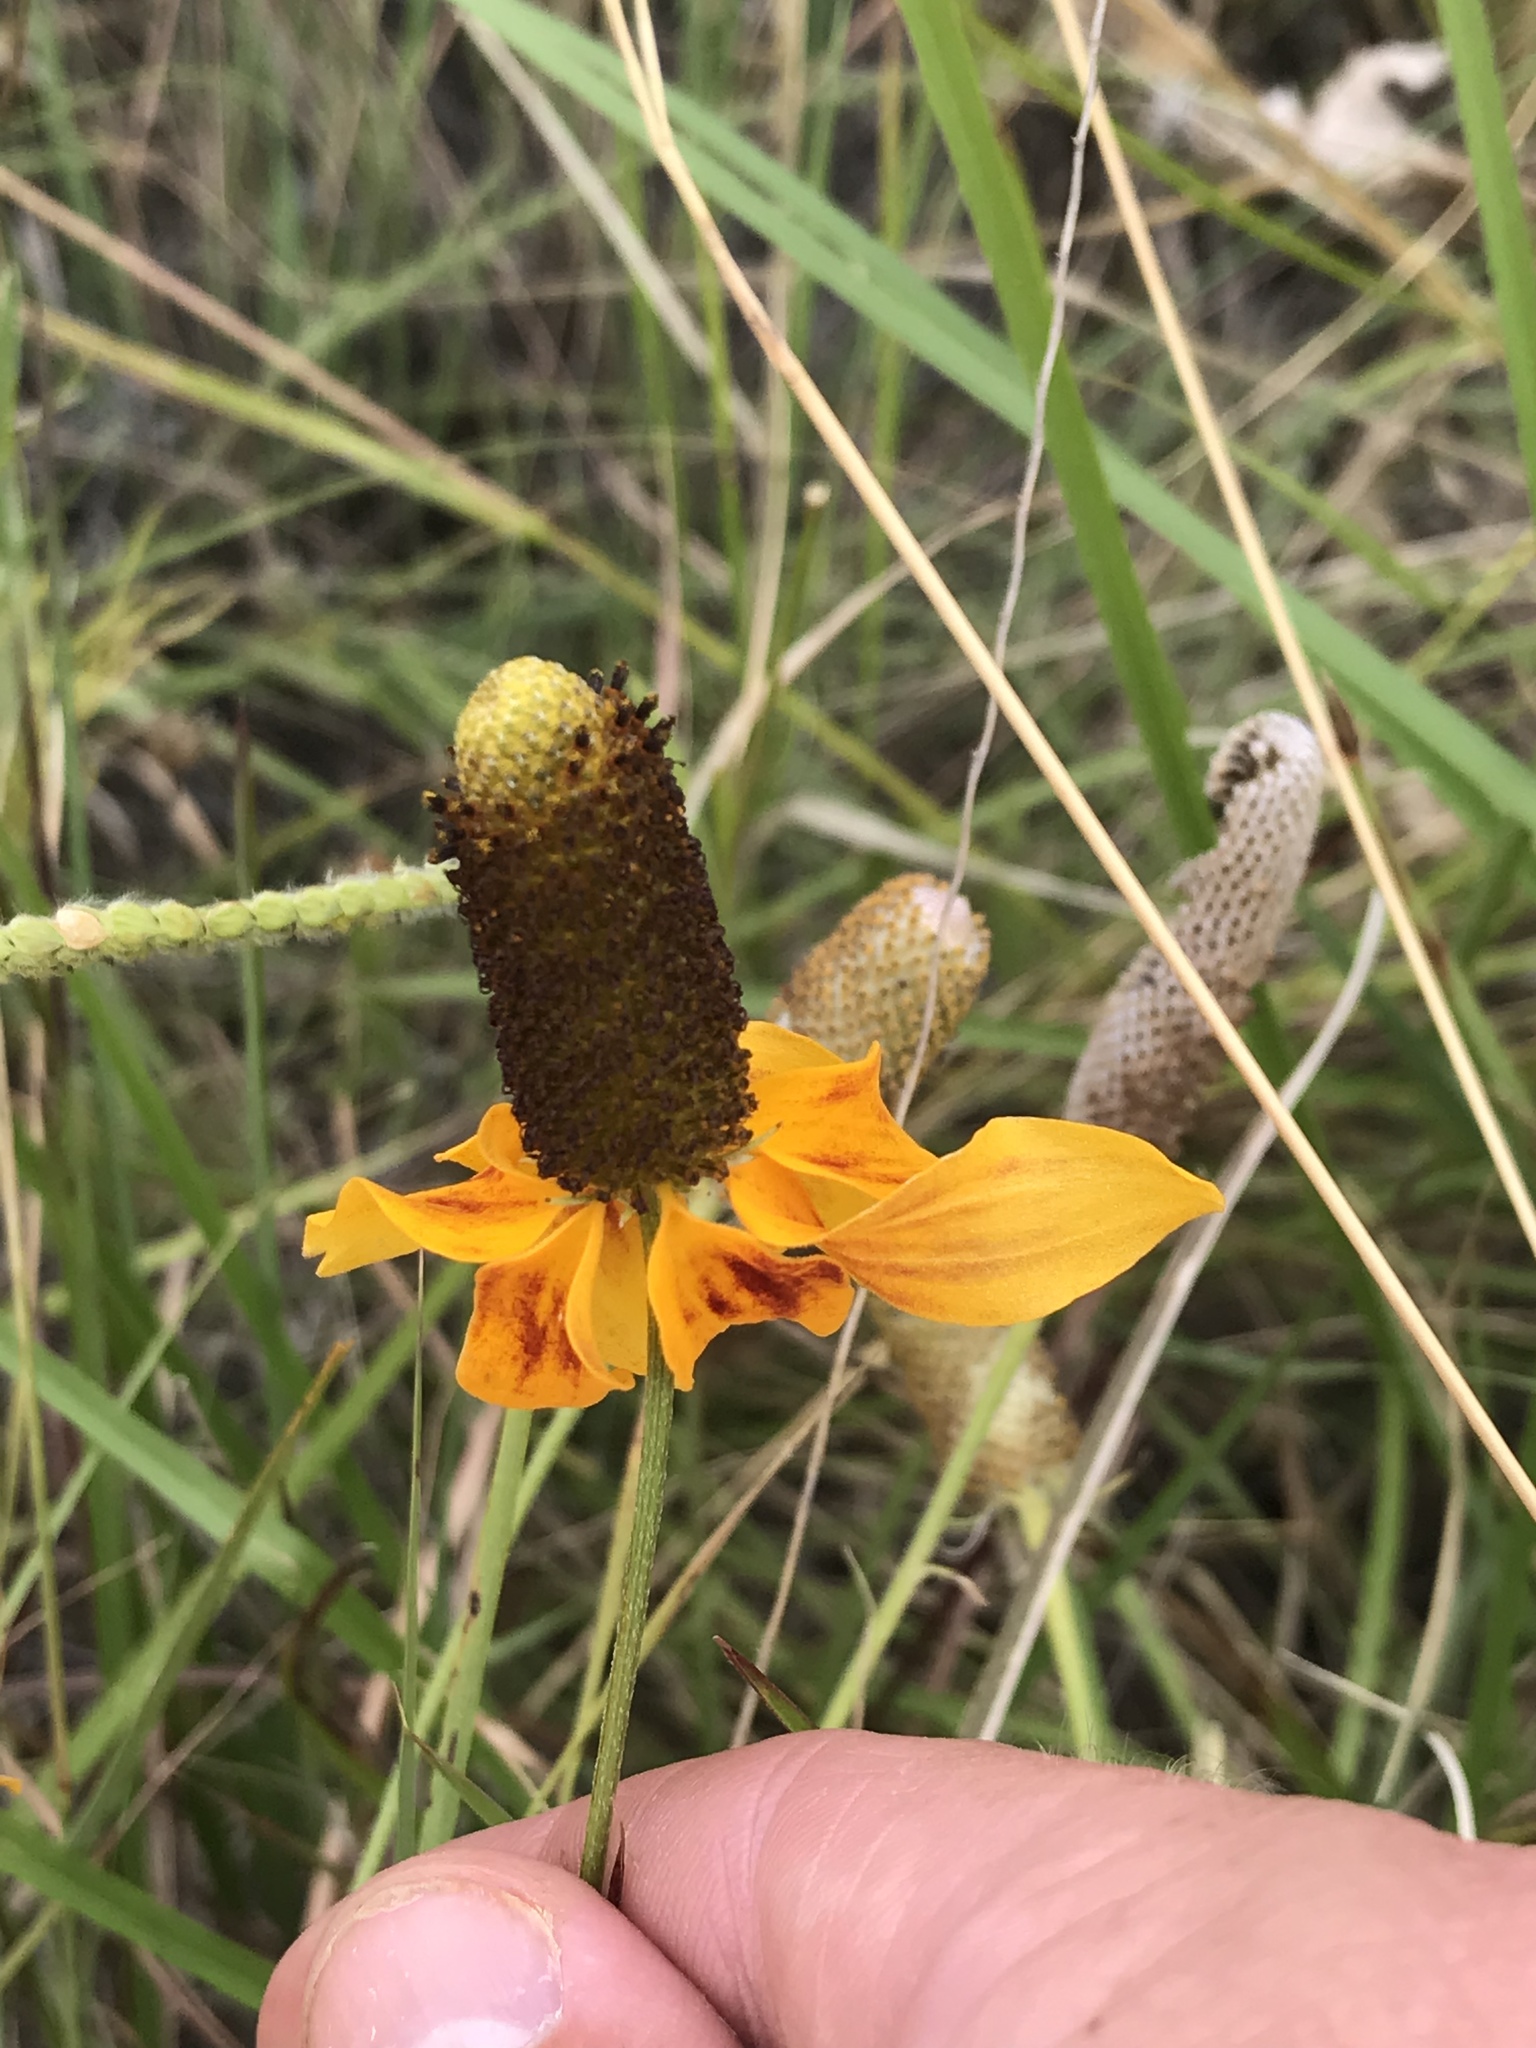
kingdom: Plantae
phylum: Tracheophyta
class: Magnoliopsida
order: Asterales
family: Asteraceae
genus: Ratibida
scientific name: Ratibida columnifera
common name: Prairie coneflower
